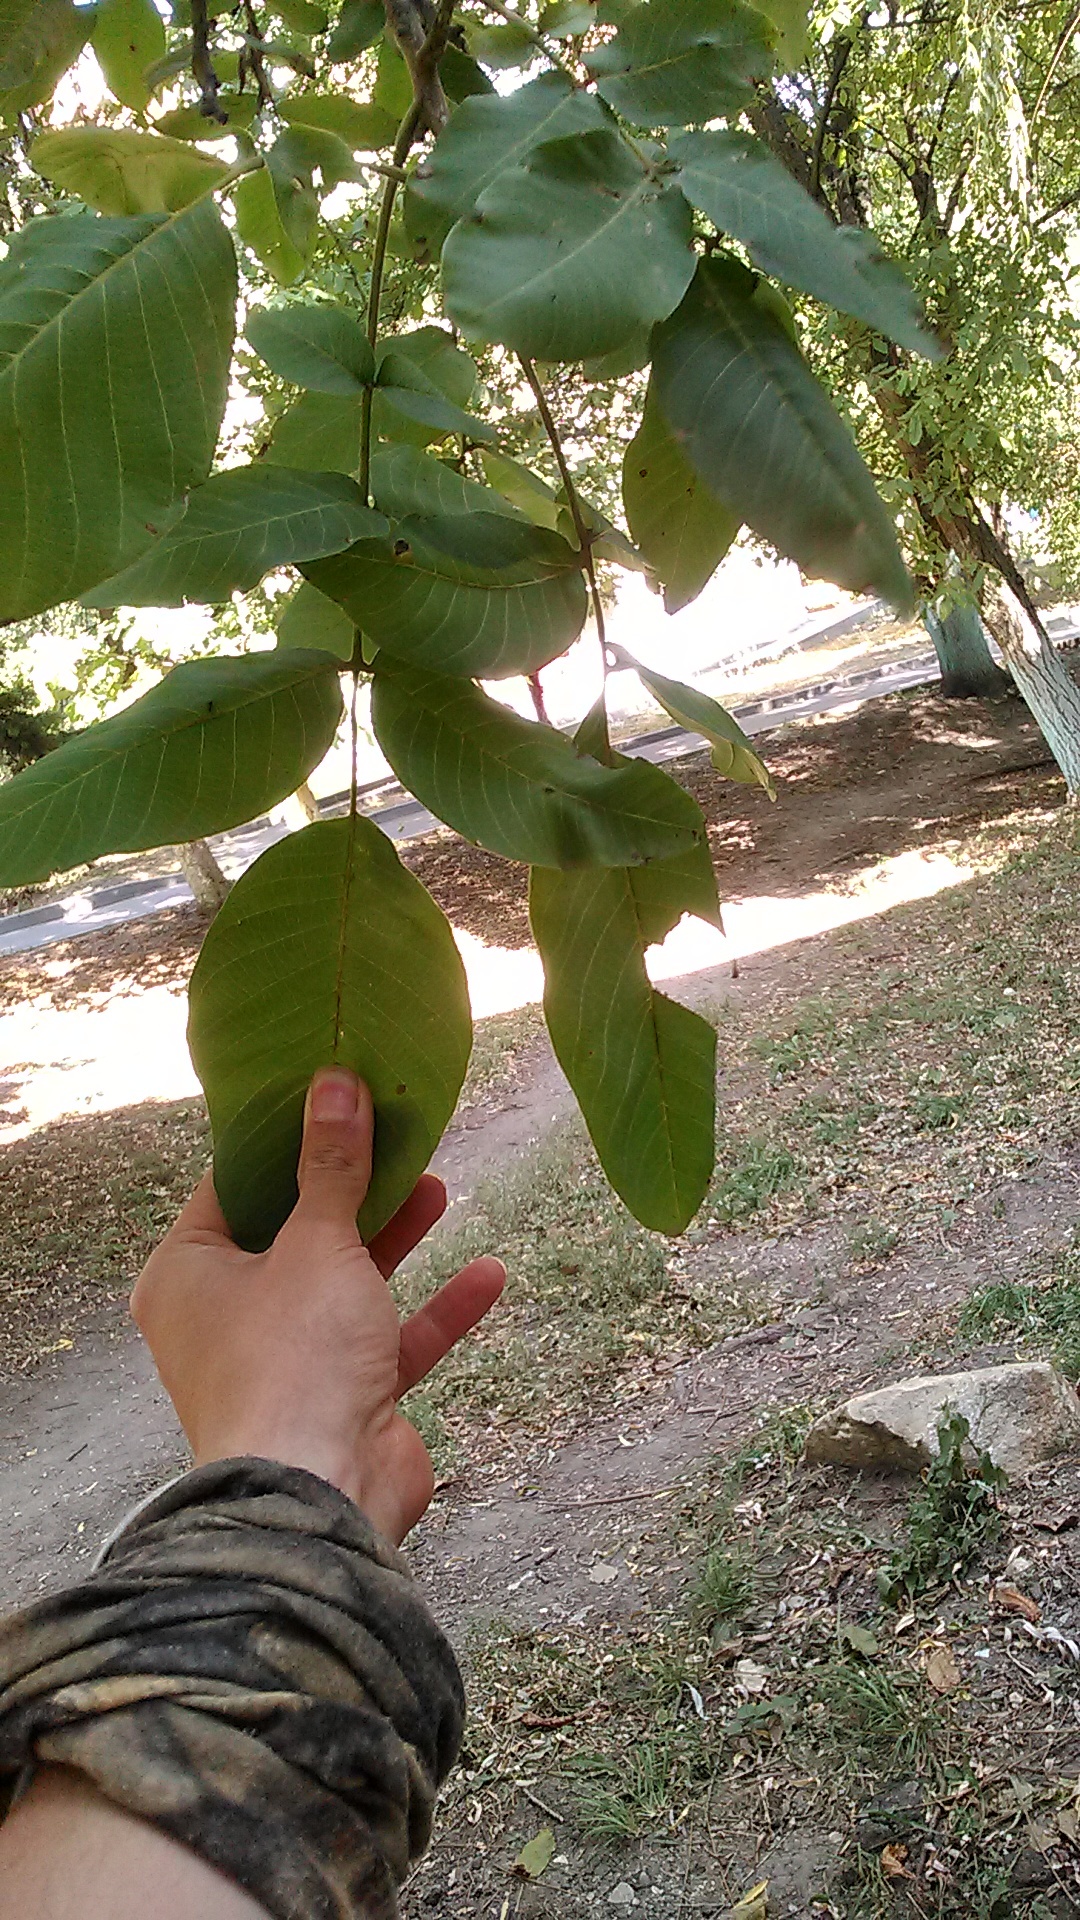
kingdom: Plantae
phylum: Tracheophyta
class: Magnoliopsida
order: Fagales
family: Juglandaceae
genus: Juglans
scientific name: Juglans regia
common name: Walnut
